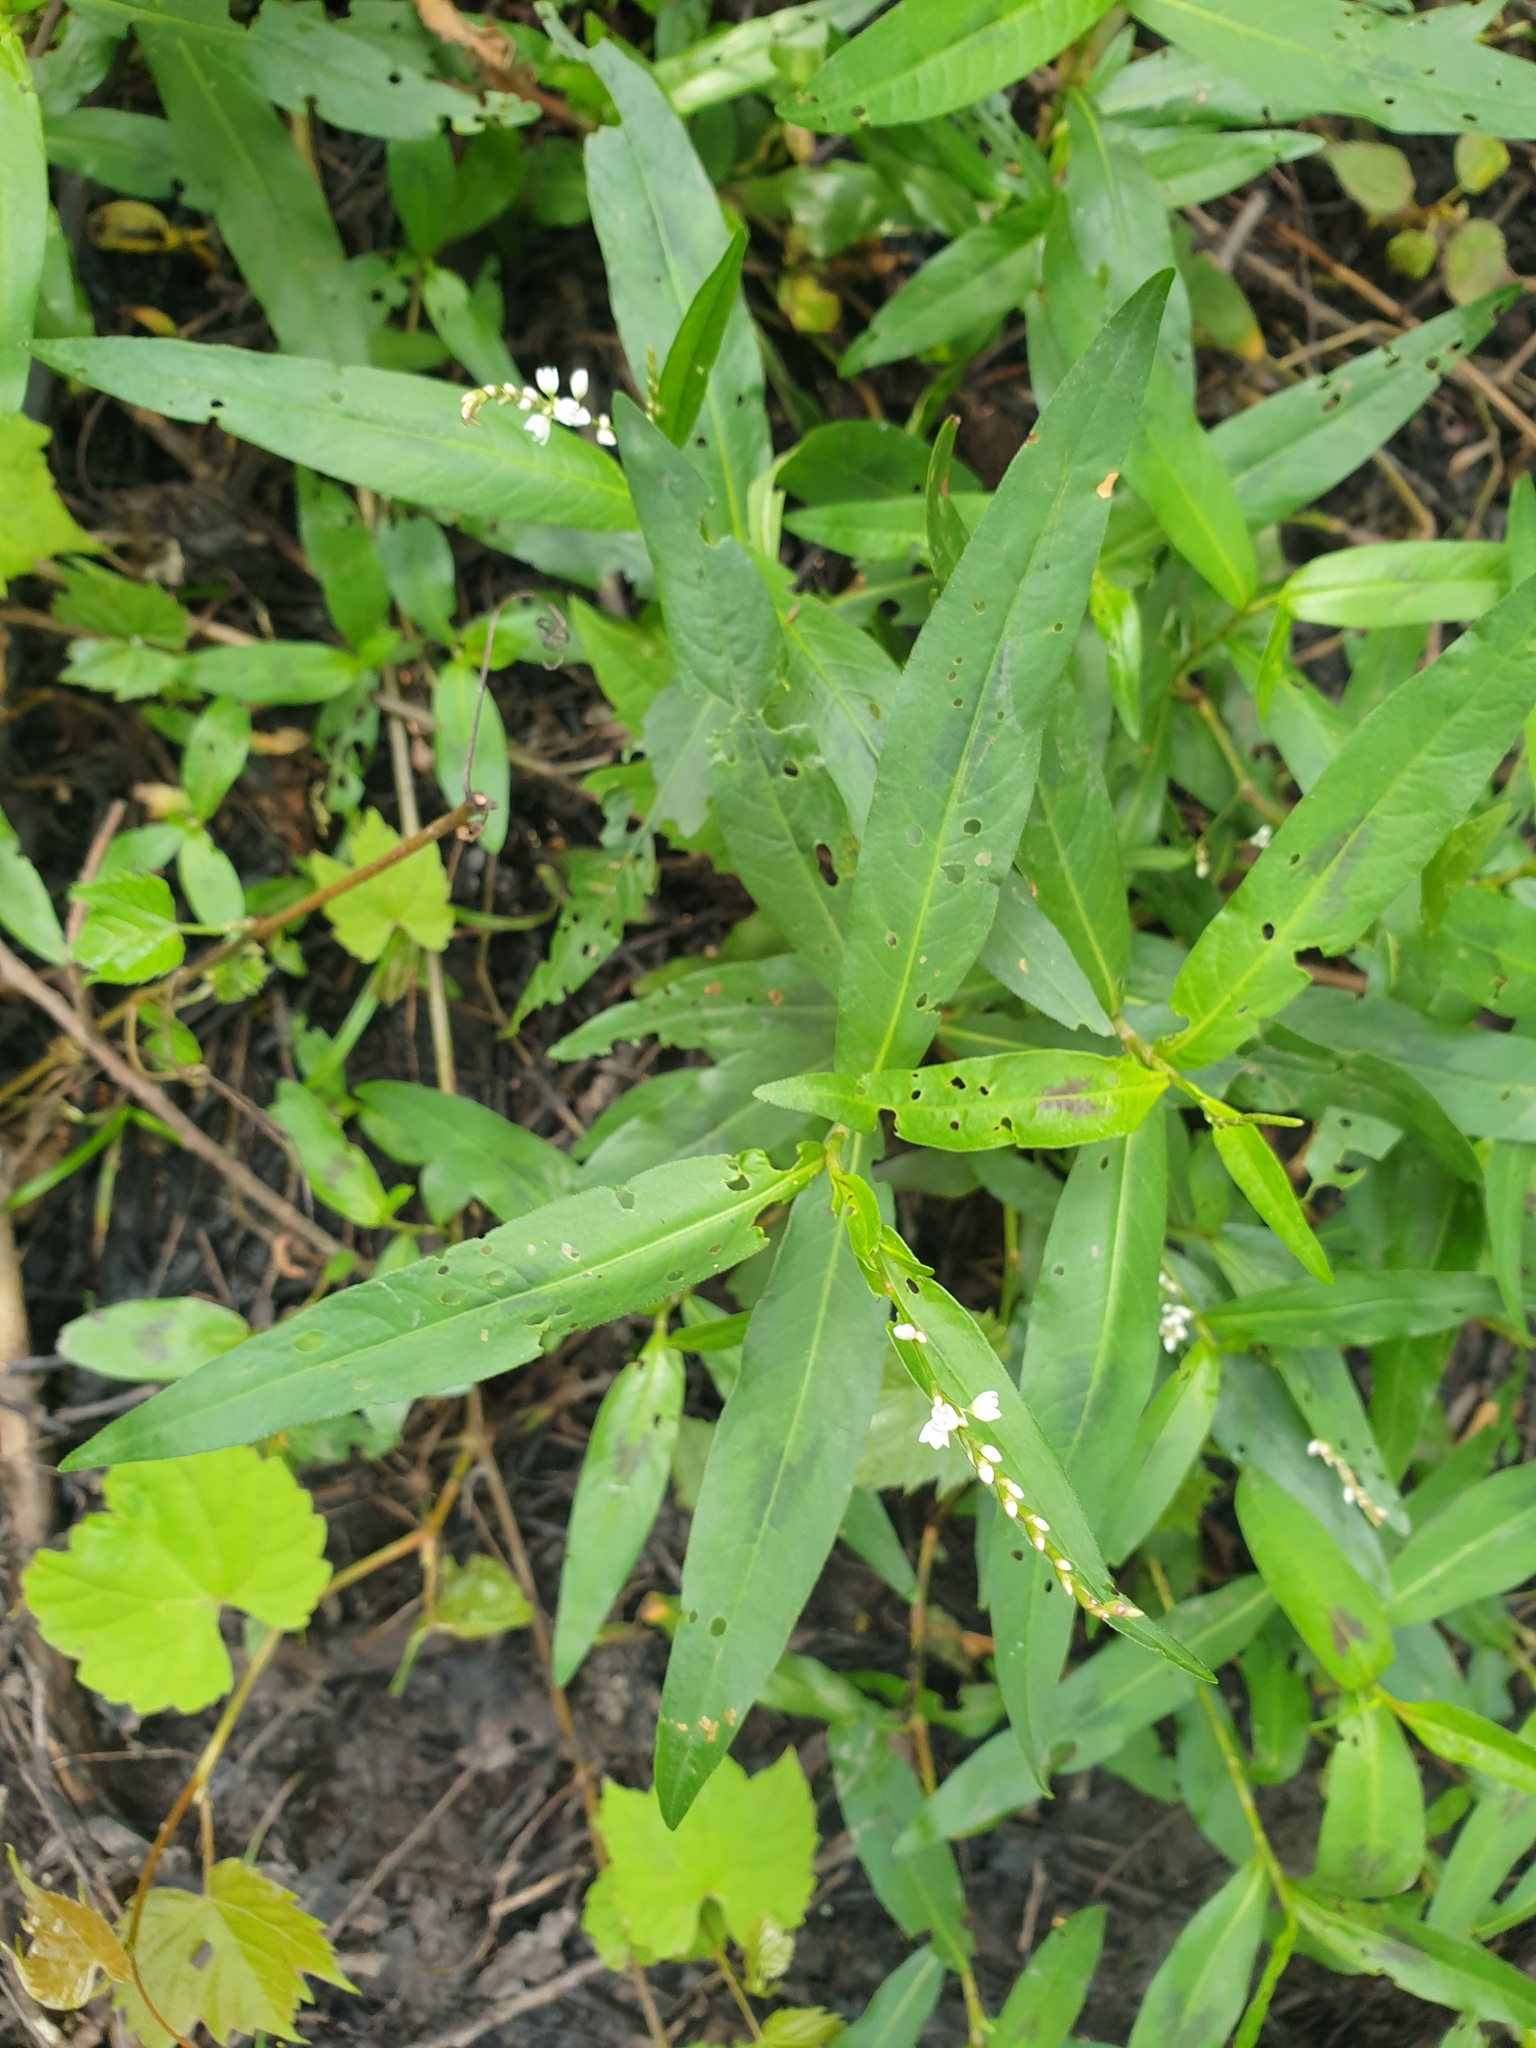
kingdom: Plantae
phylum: Tracheophyta
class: Magnoliopsida
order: Caryophyllales
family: Polygonaceae
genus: Persicaria
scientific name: Persicaria hydropiperoides
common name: Swamp smartweed
